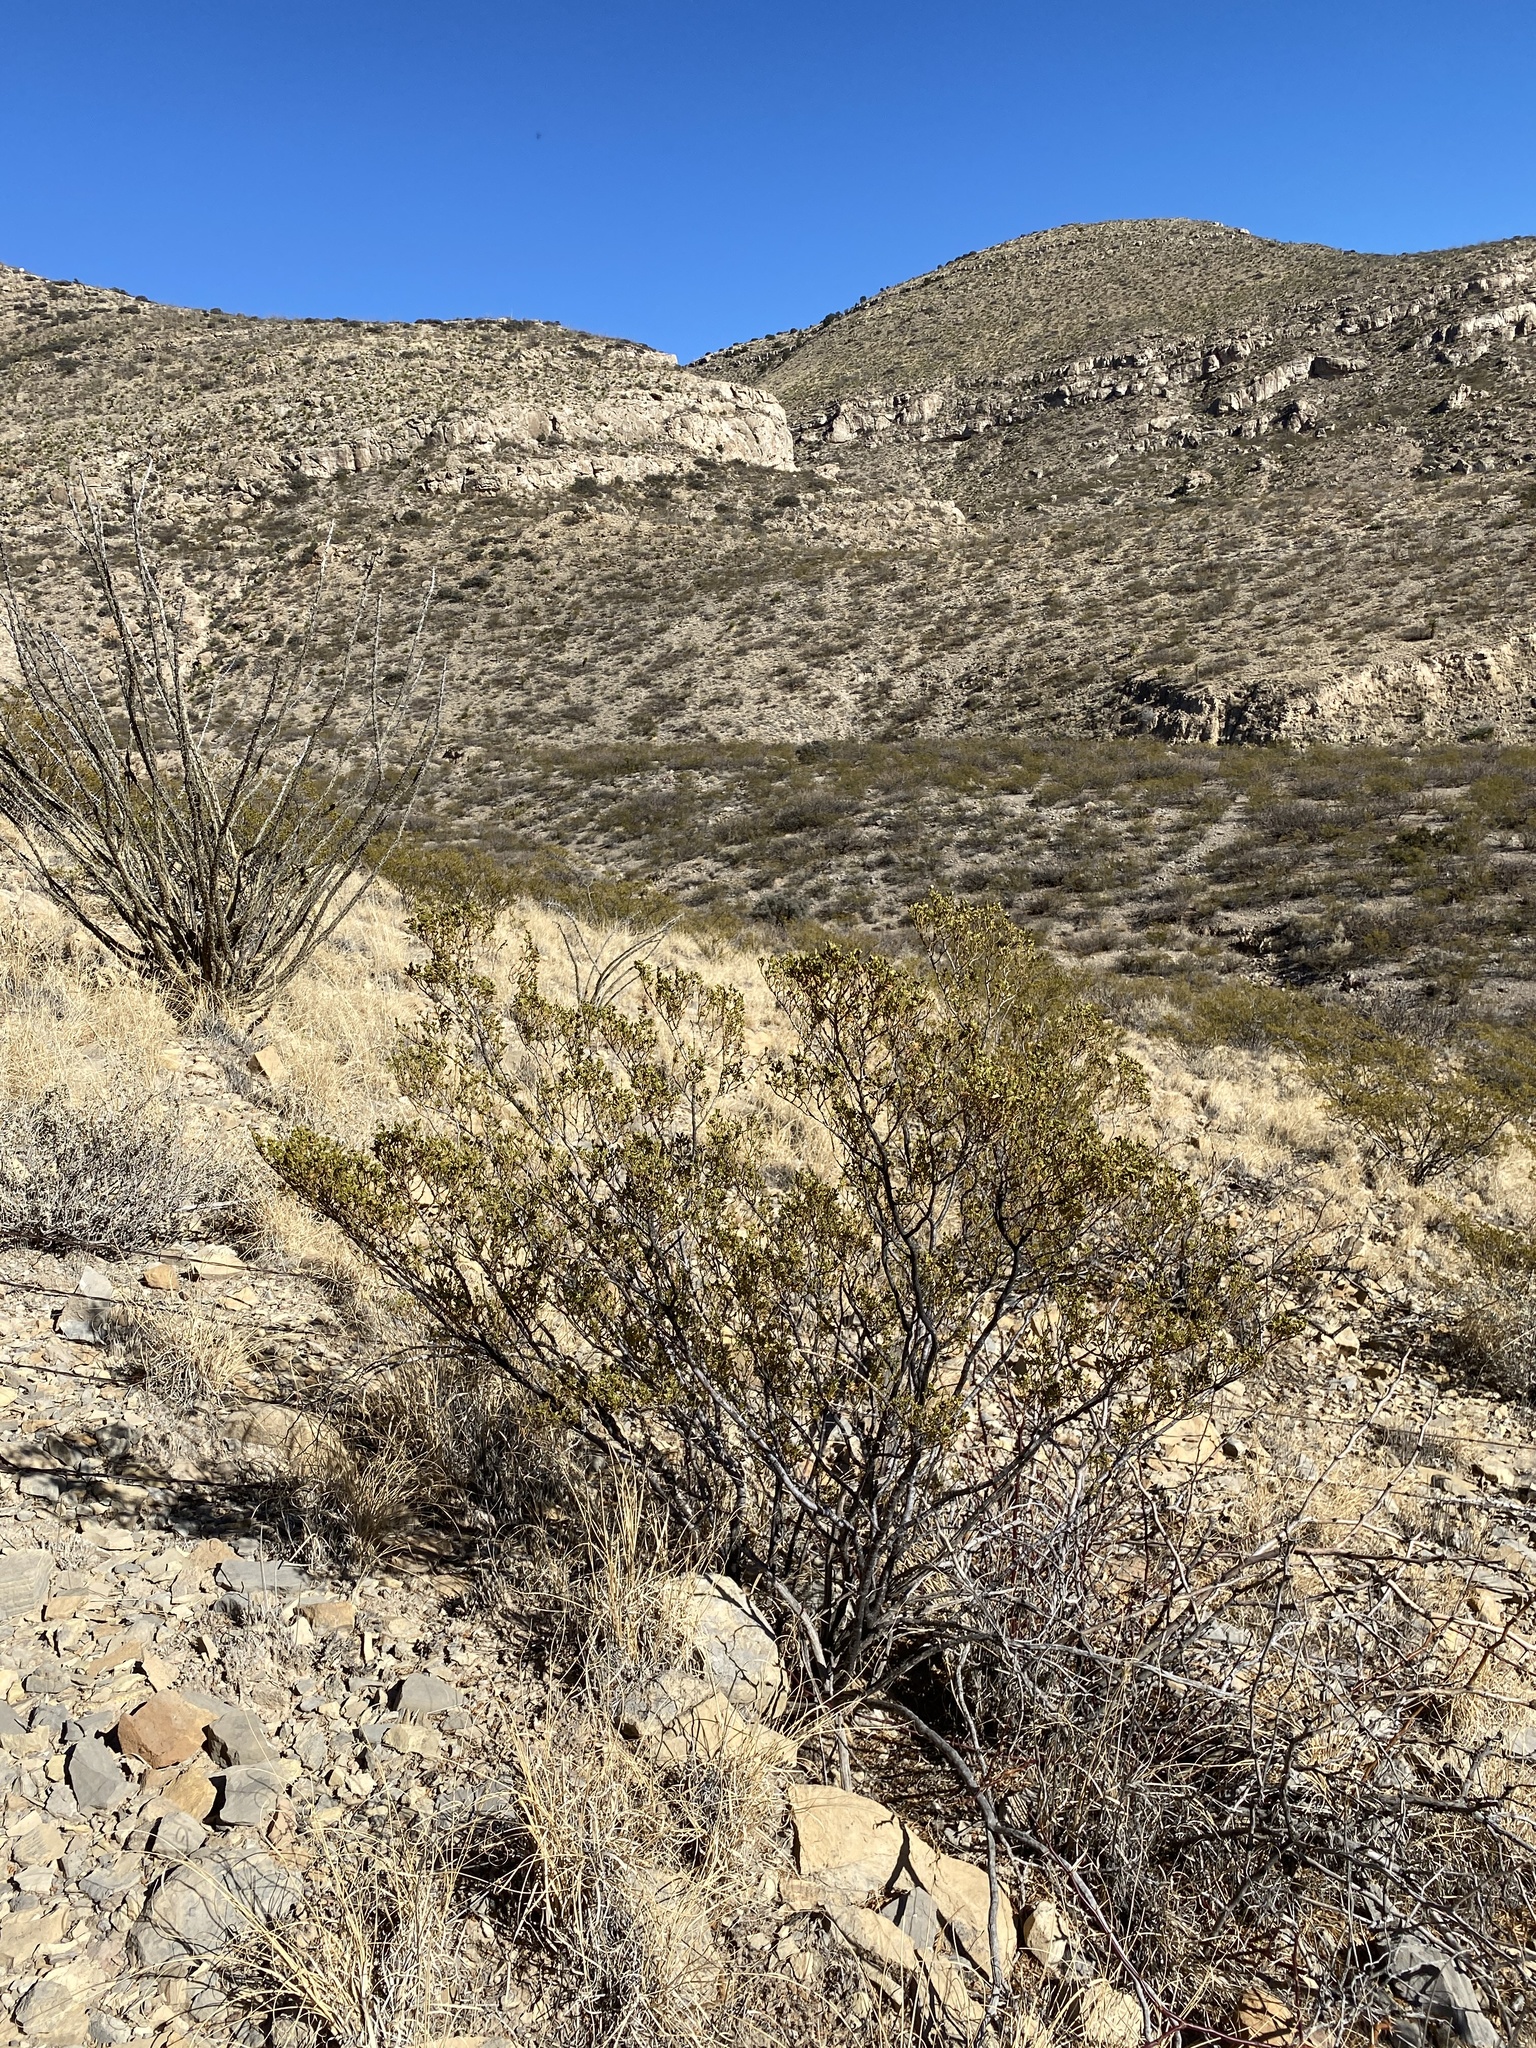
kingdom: Plantae
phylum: Tracheophyta
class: Magnoliopsida
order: Zygophyllales
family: Zygophyllaceae
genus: Larrea
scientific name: Larrea tridentata
